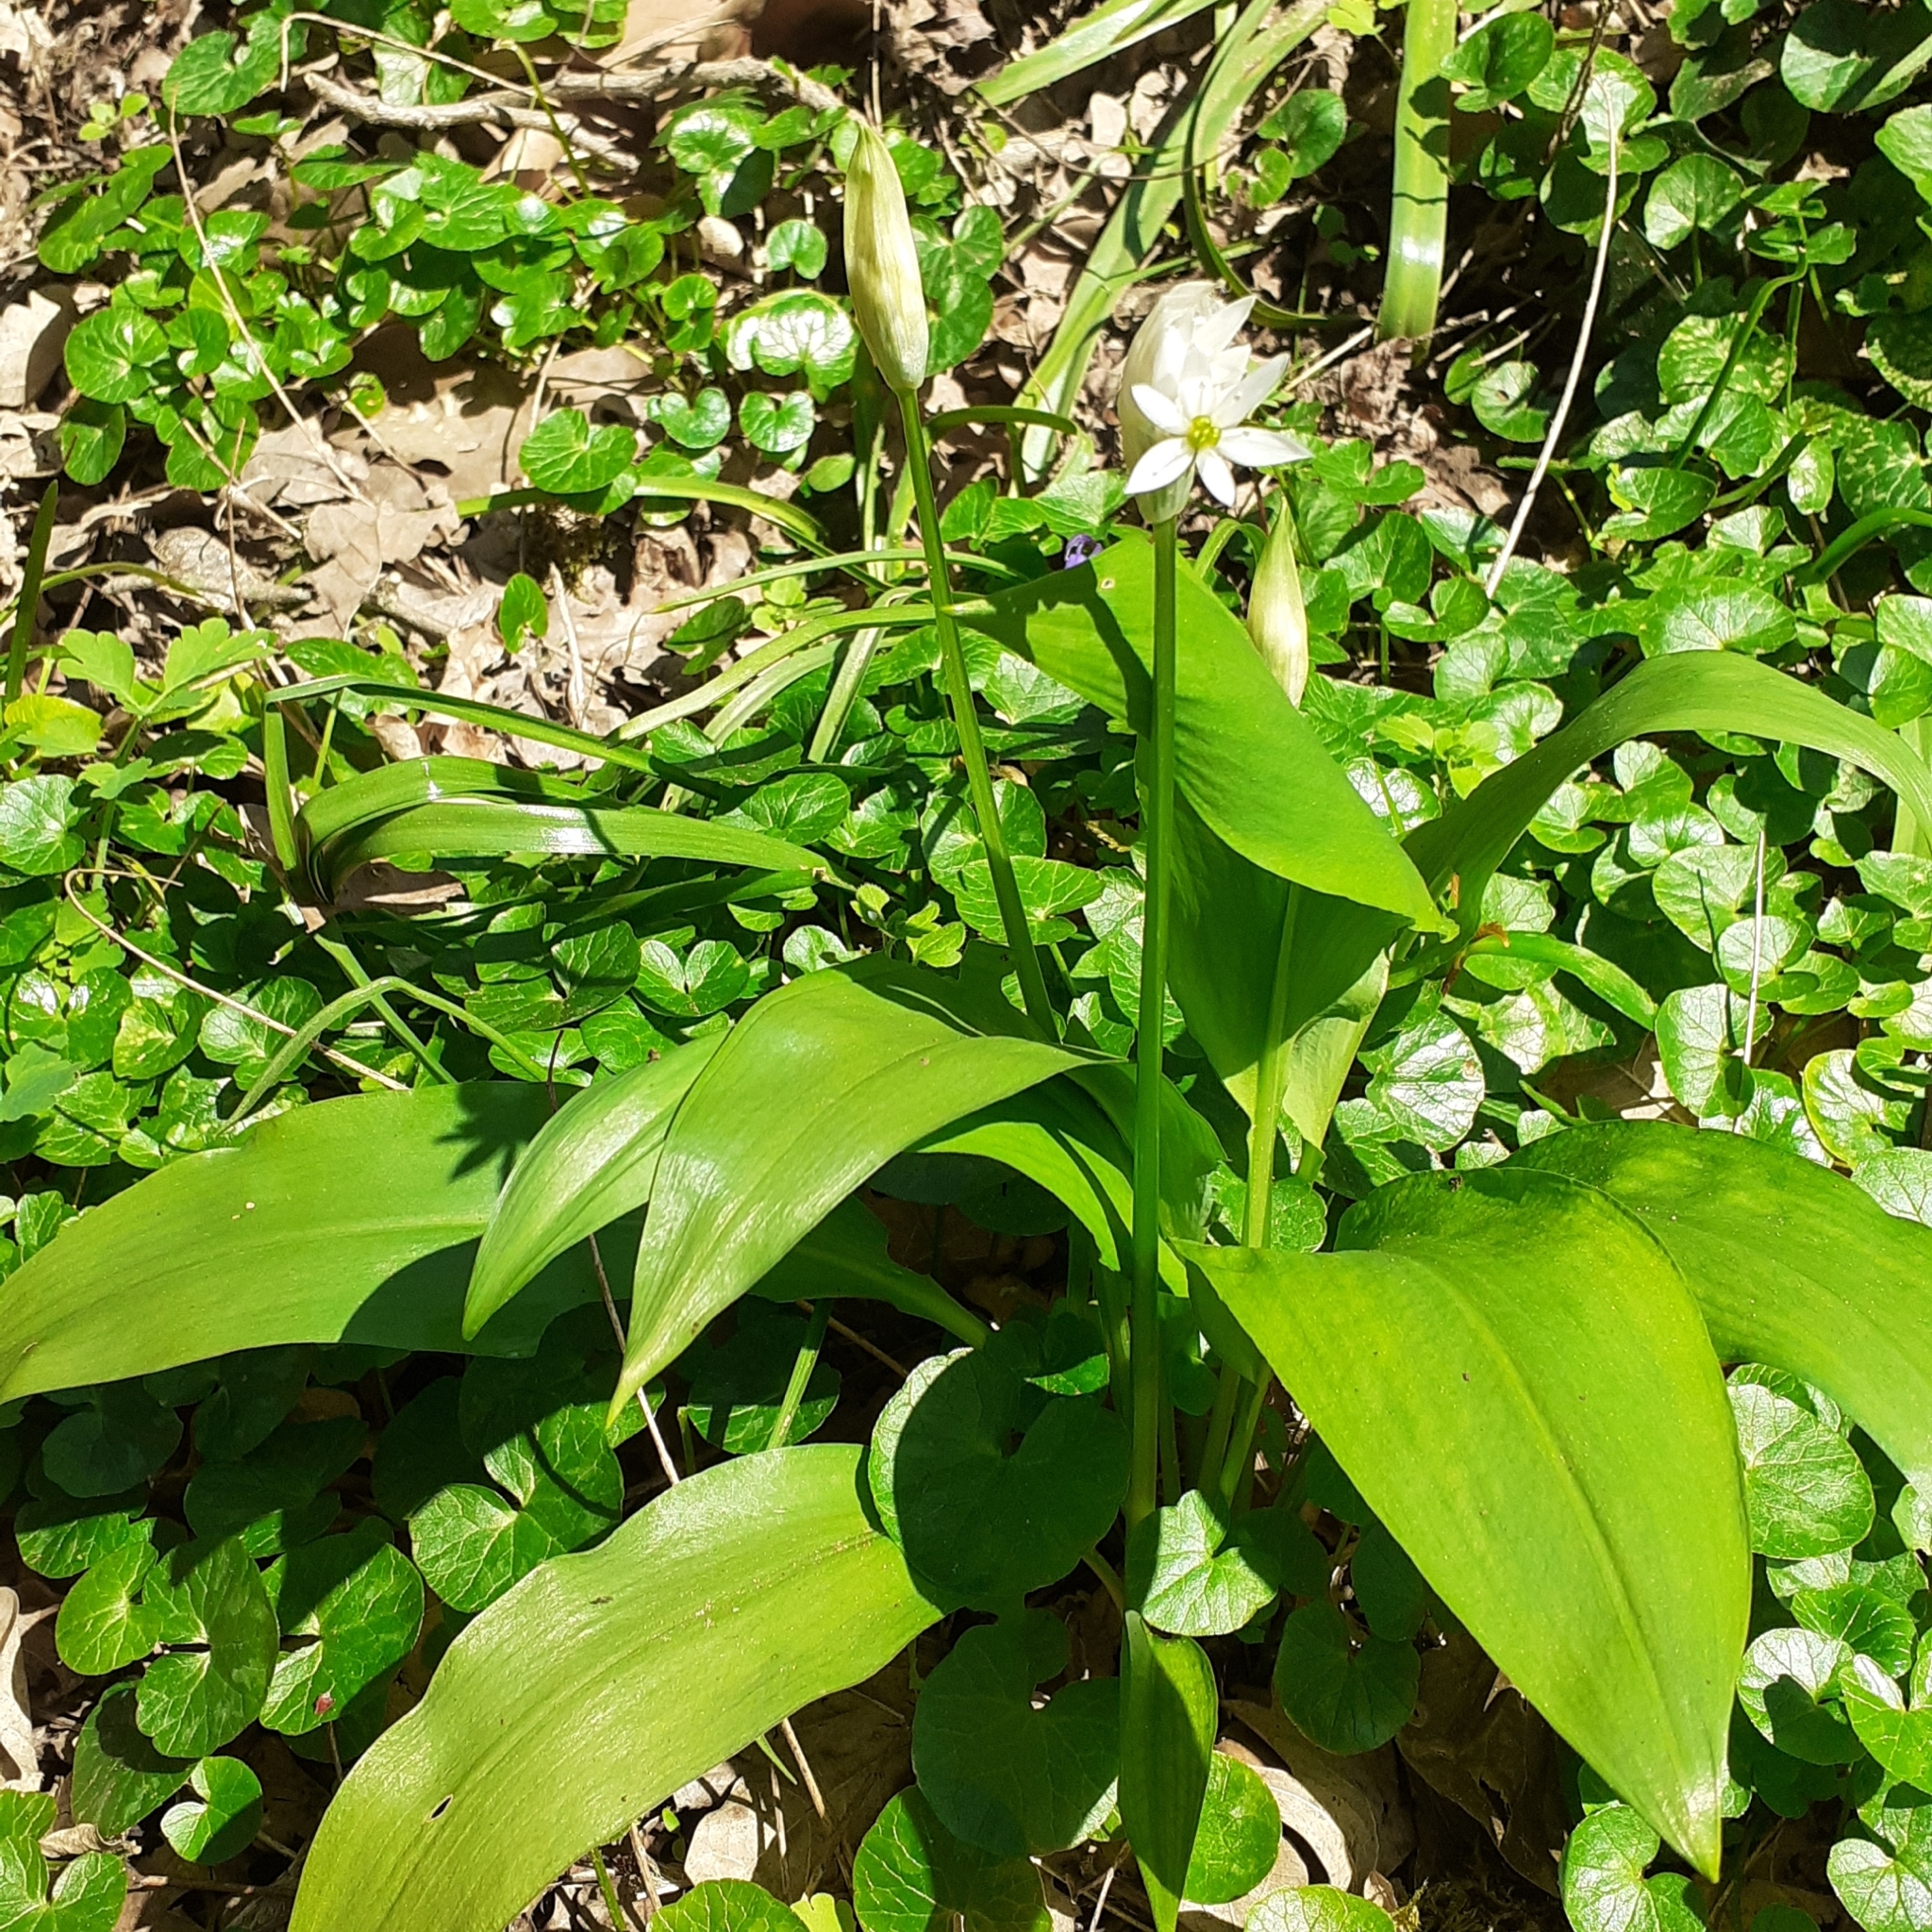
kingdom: Plantae
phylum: Tracheophyta
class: Liliopsida
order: Asparagales
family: Amaryllidaceae
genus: Allium
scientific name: Allium ursinum
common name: Ramsons
